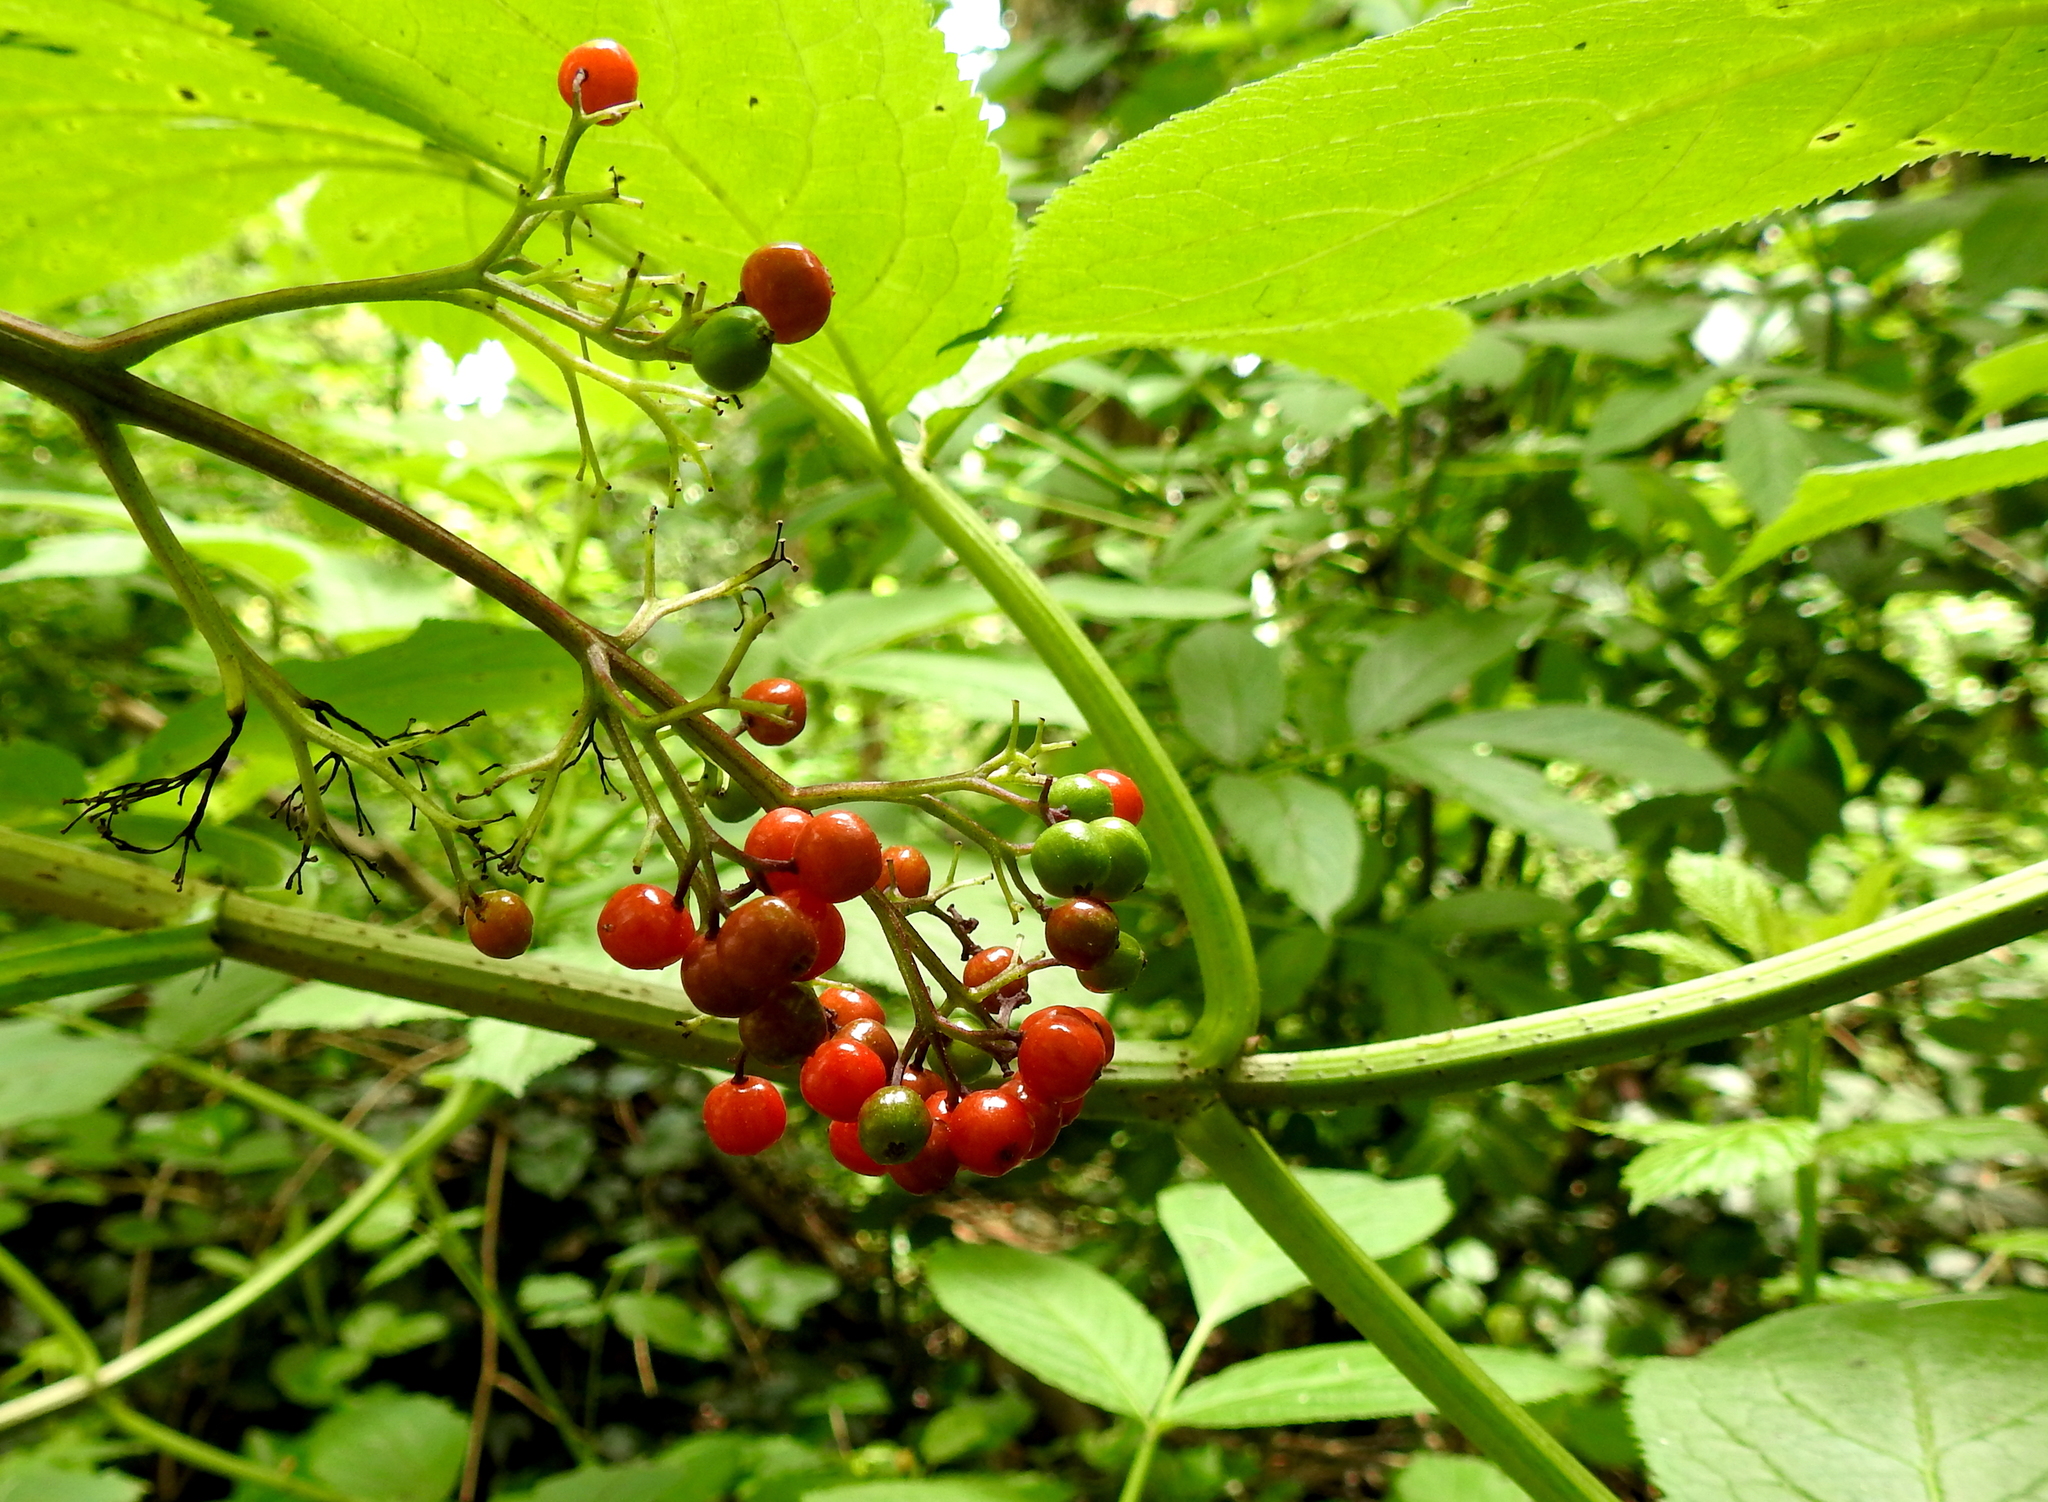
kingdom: Plantae
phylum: Tracheophyta
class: Magnoliopsida
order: Dipsacales
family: Viburnaceae
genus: Sambucus
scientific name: Sambucus racemosa
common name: Red-berried elder
